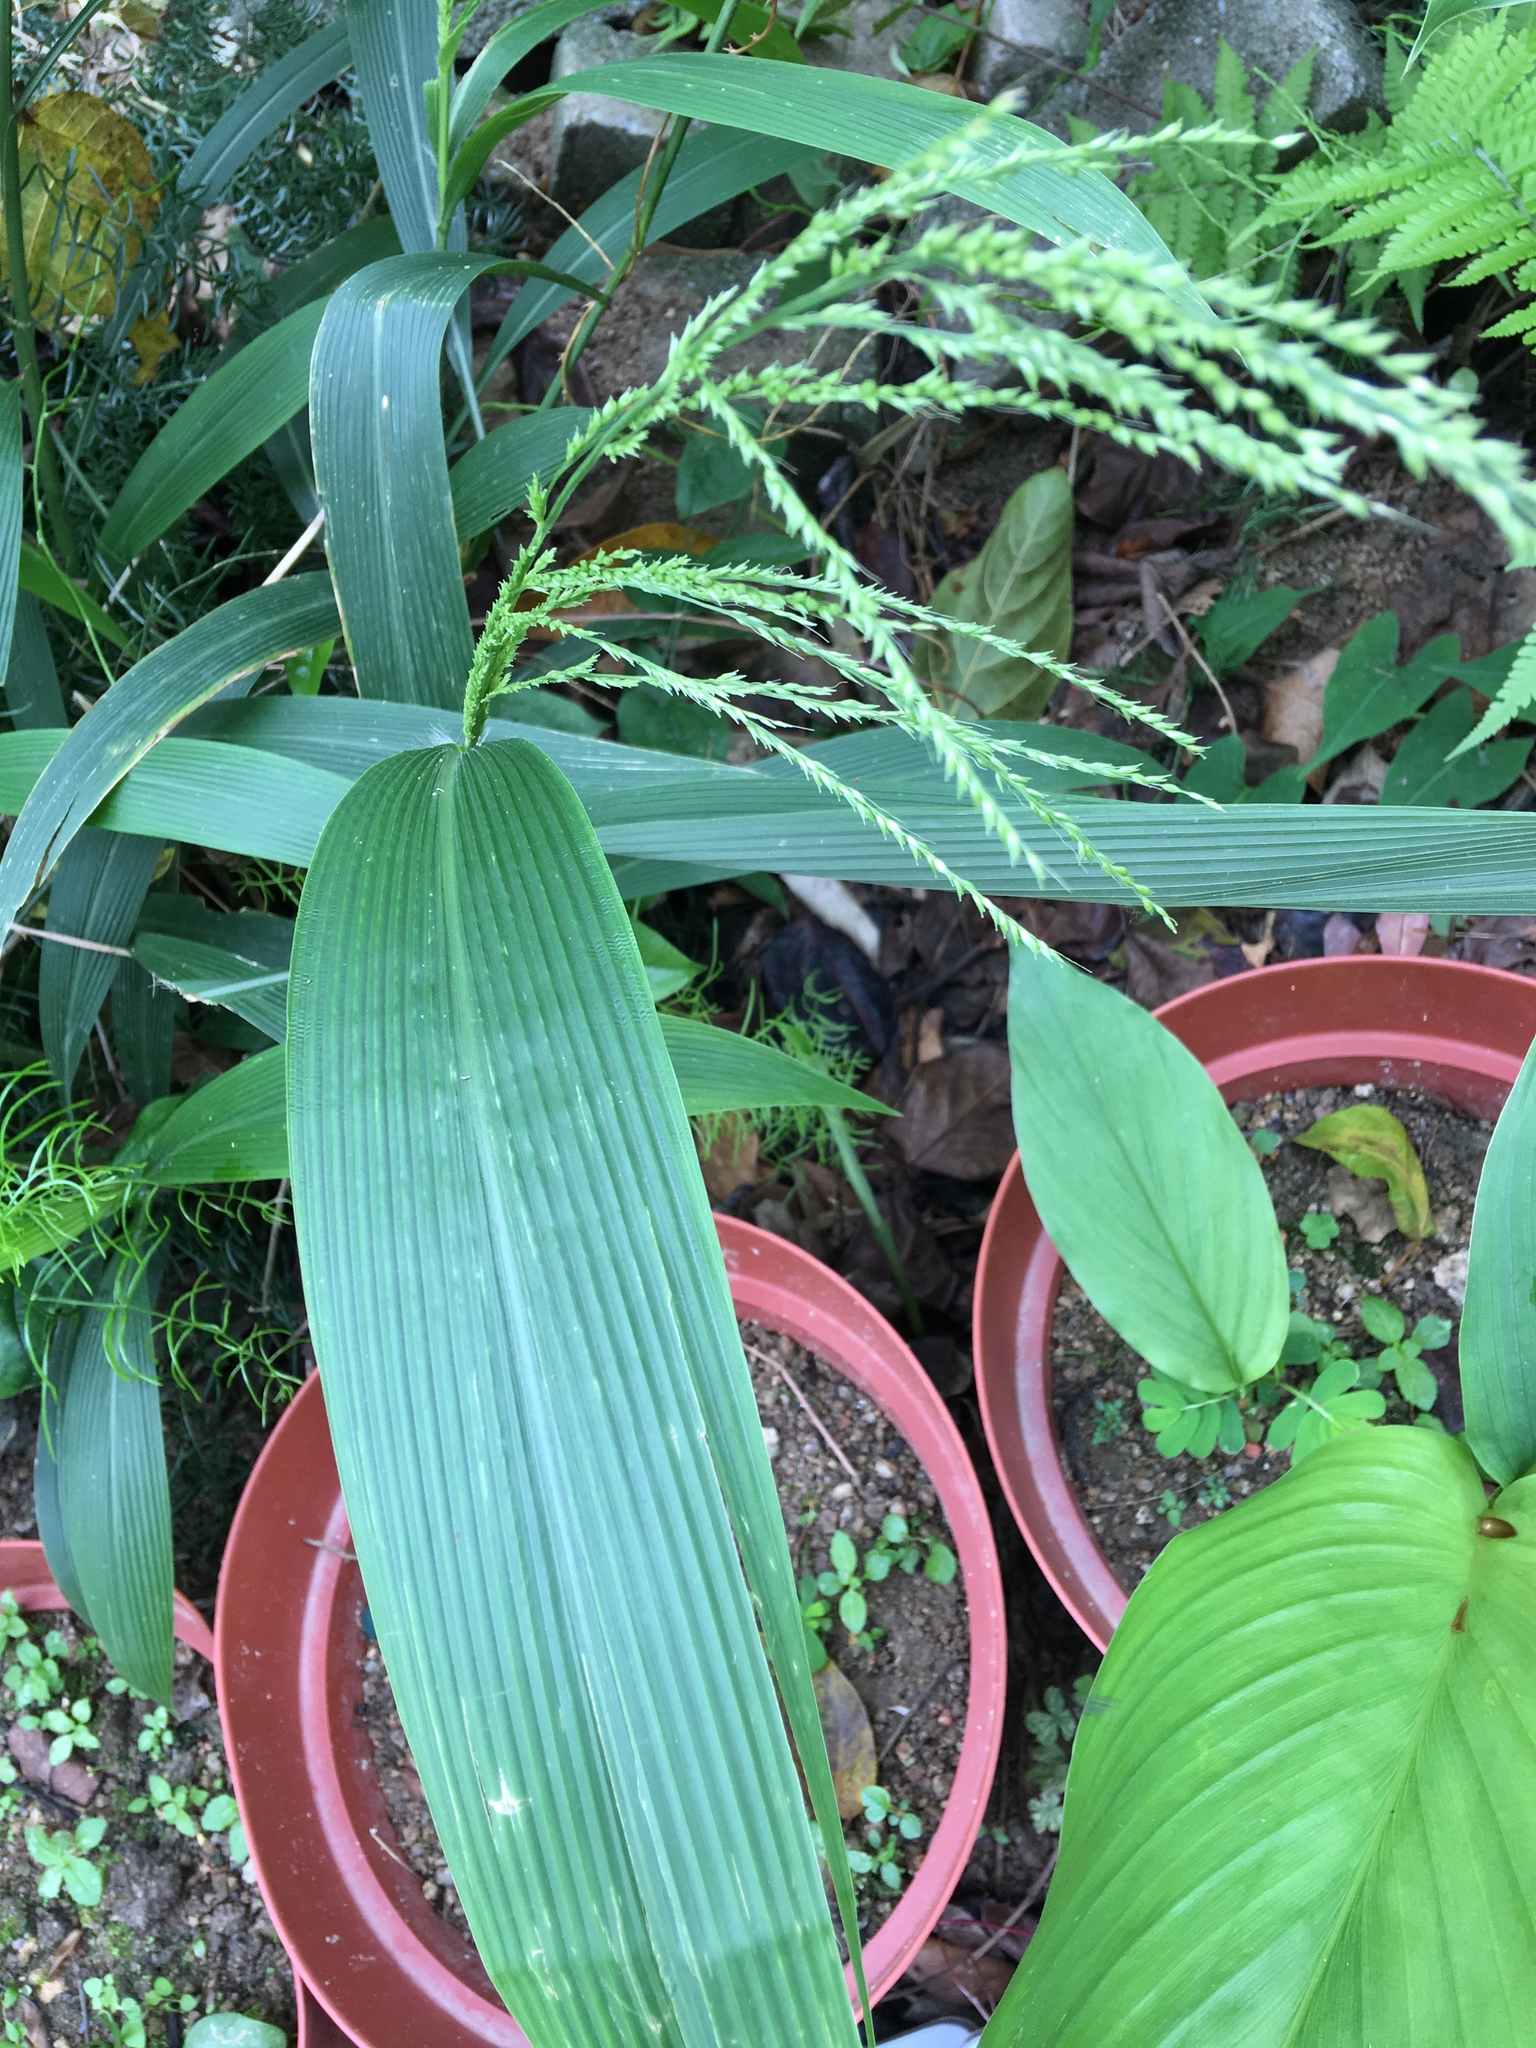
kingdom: Plantae
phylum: Tracheophyta
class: Liliopsida
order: Poales
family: Poaceae
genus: Setaria
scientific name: Setaria palmifolia
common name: Broadleaved bristlegrass
